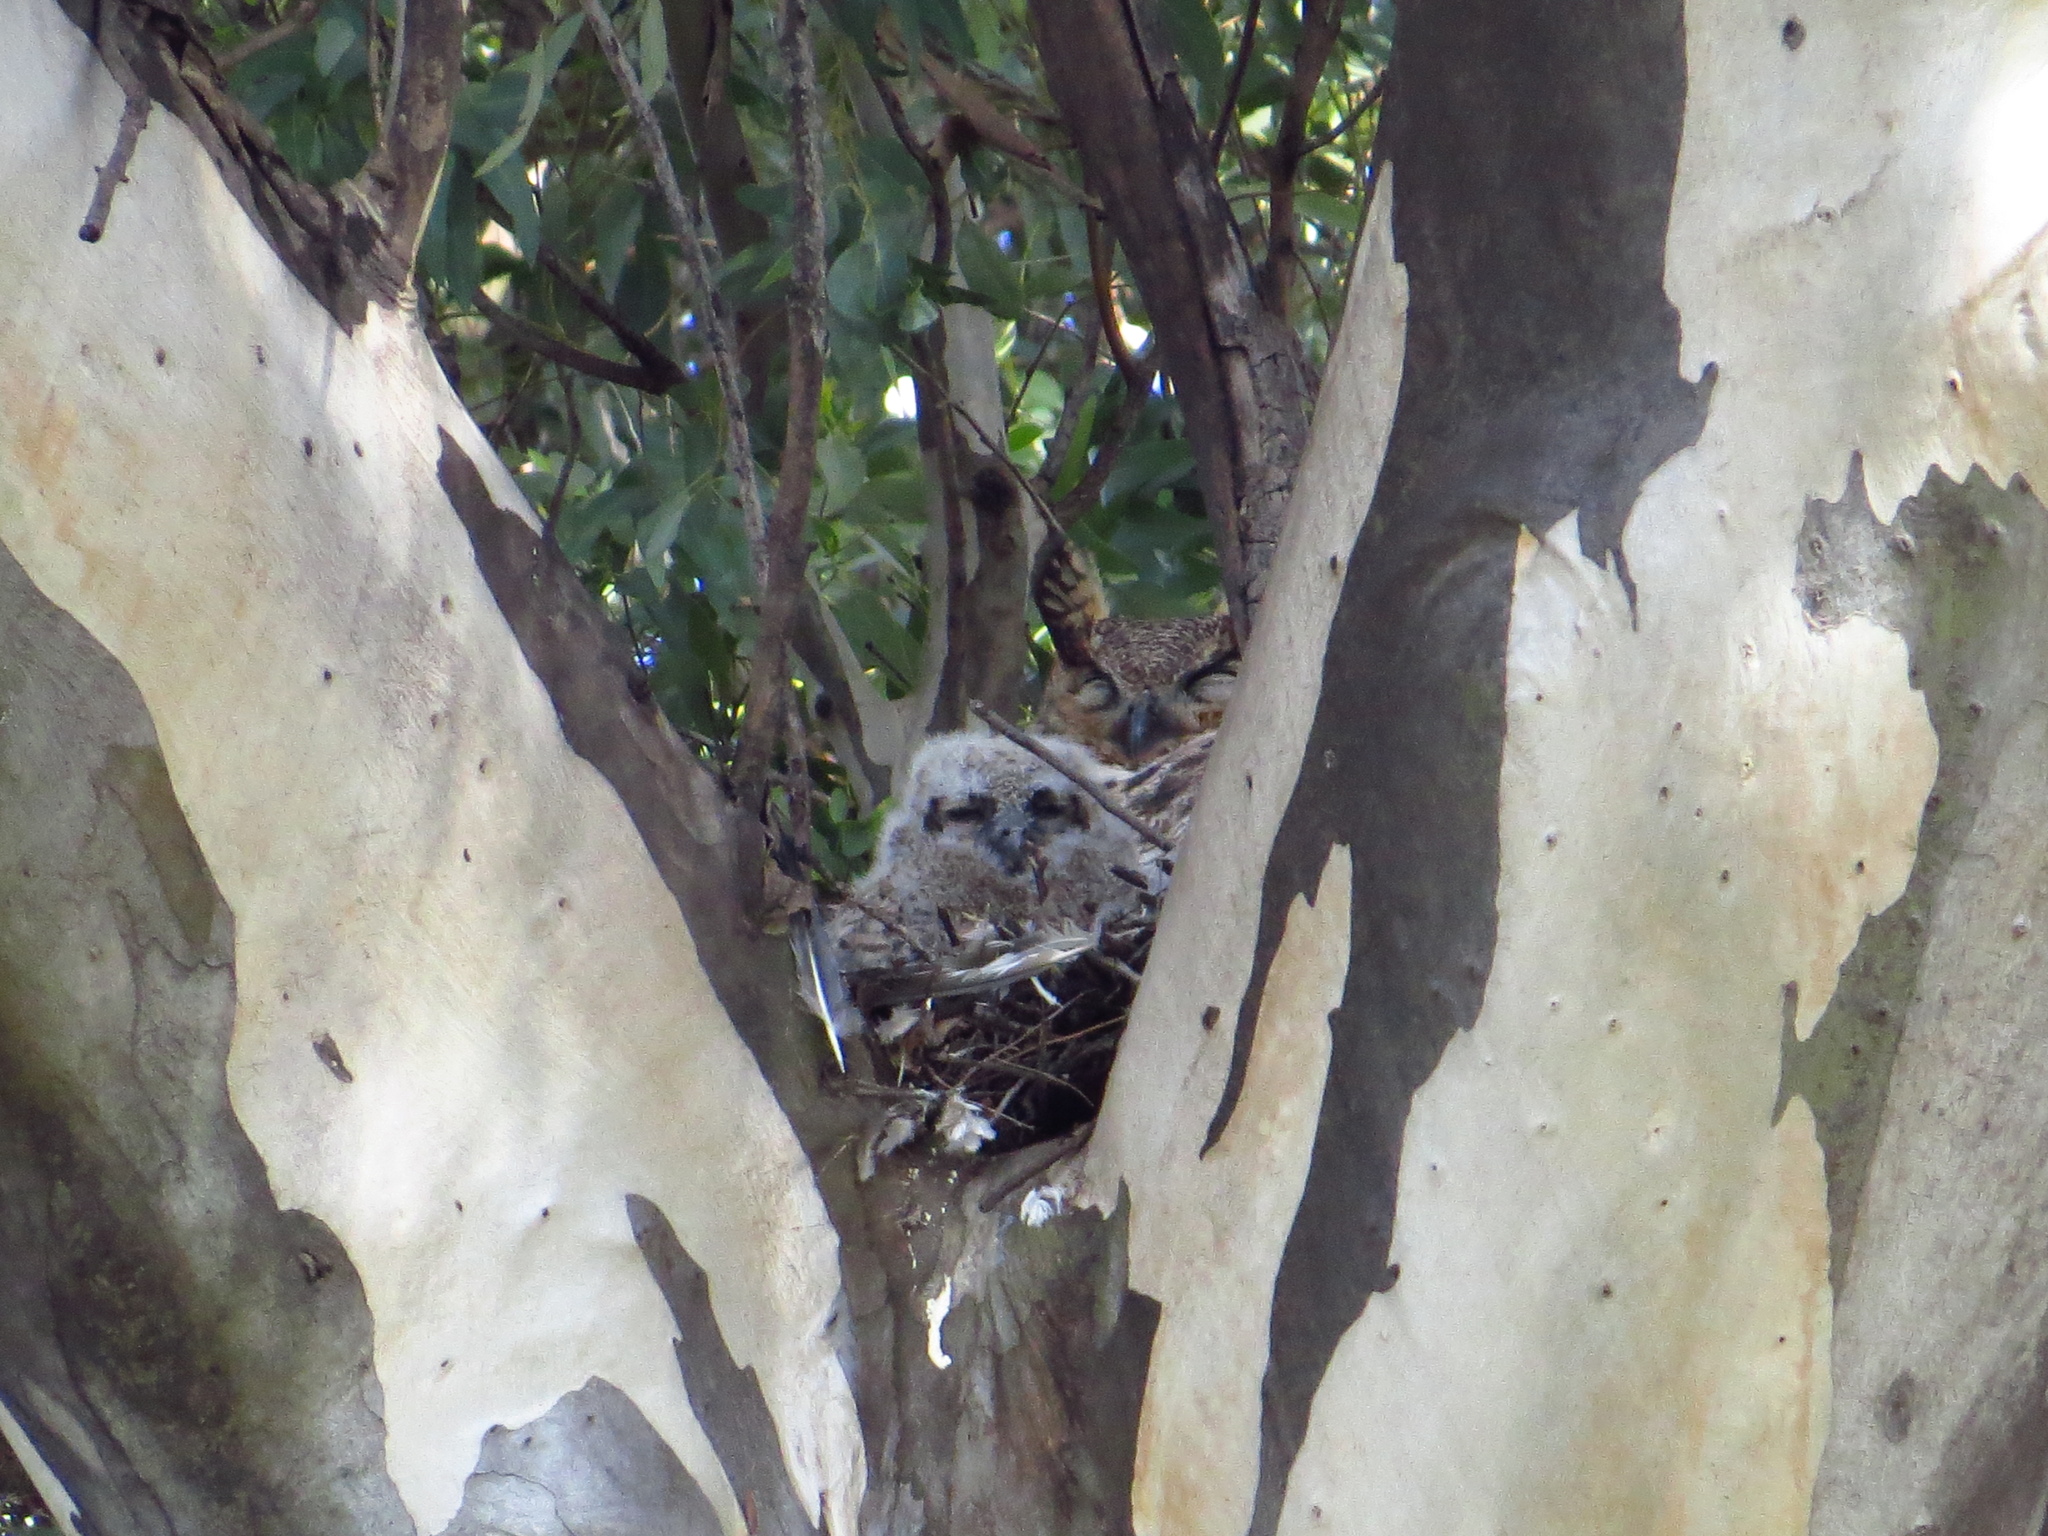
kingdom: Animalia
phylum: Chordata
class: Aves
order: Strigiformes
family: Strigidae
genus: Bubo
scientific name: Bubo virginianus
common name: Great horned owl
